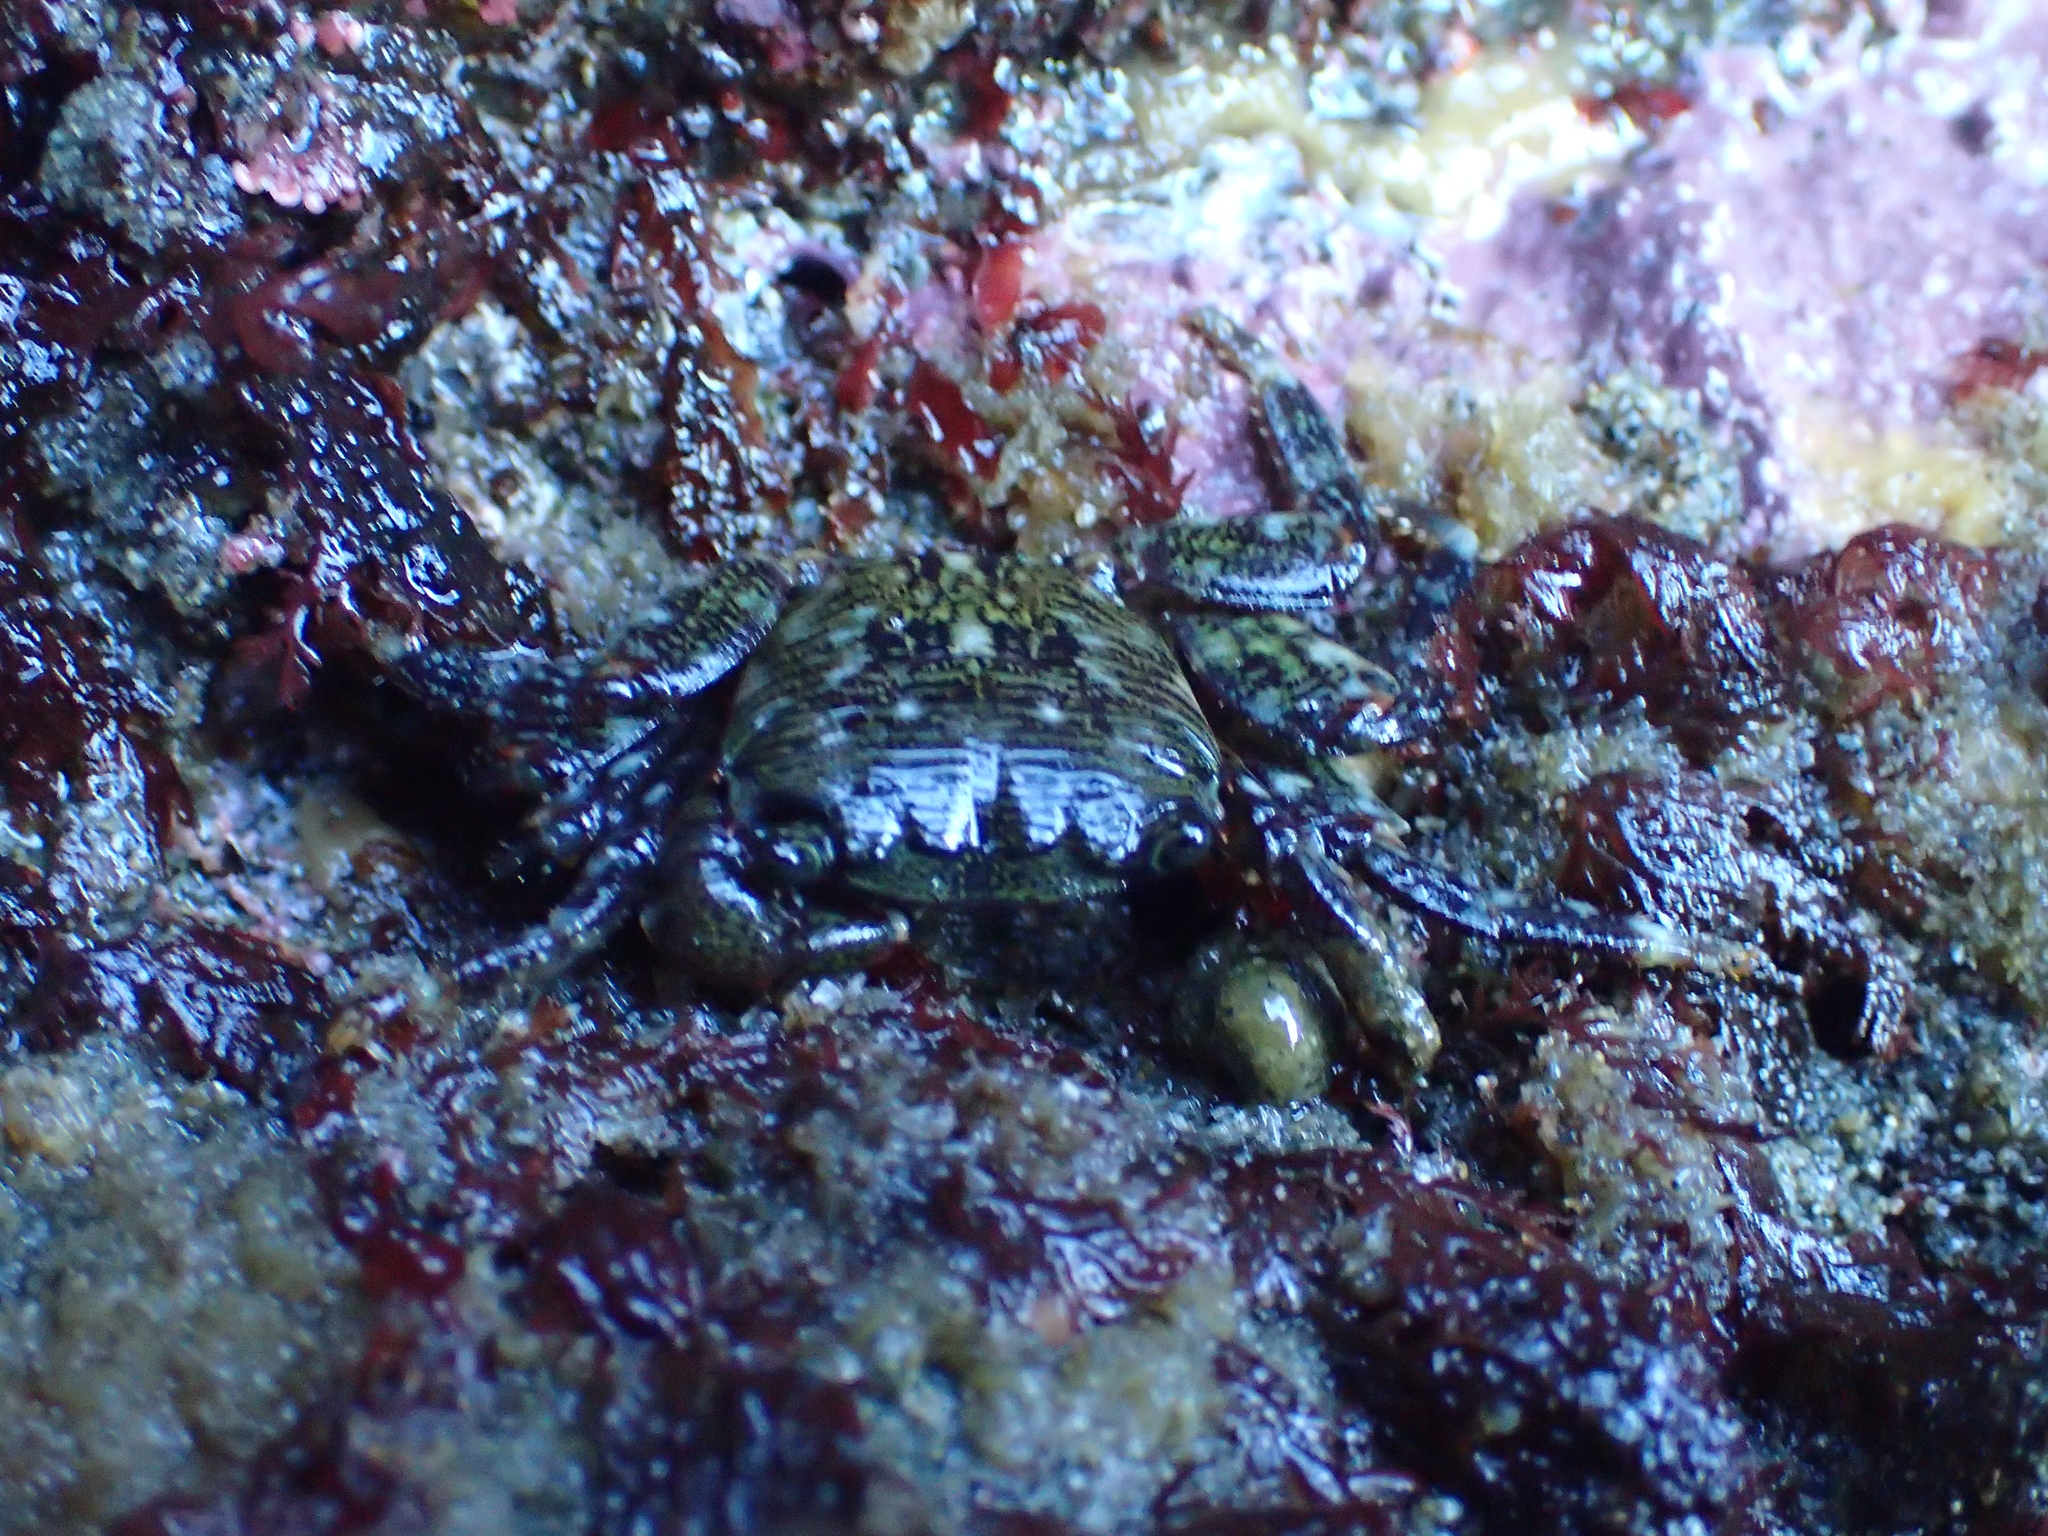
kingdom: Animalia
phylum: Arthropoda
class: Malacostraca
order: Decapoda
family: Grapsidae
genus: Pachygrapsus
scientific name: Pachygrapsus crassipes
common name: Striped shore crab
